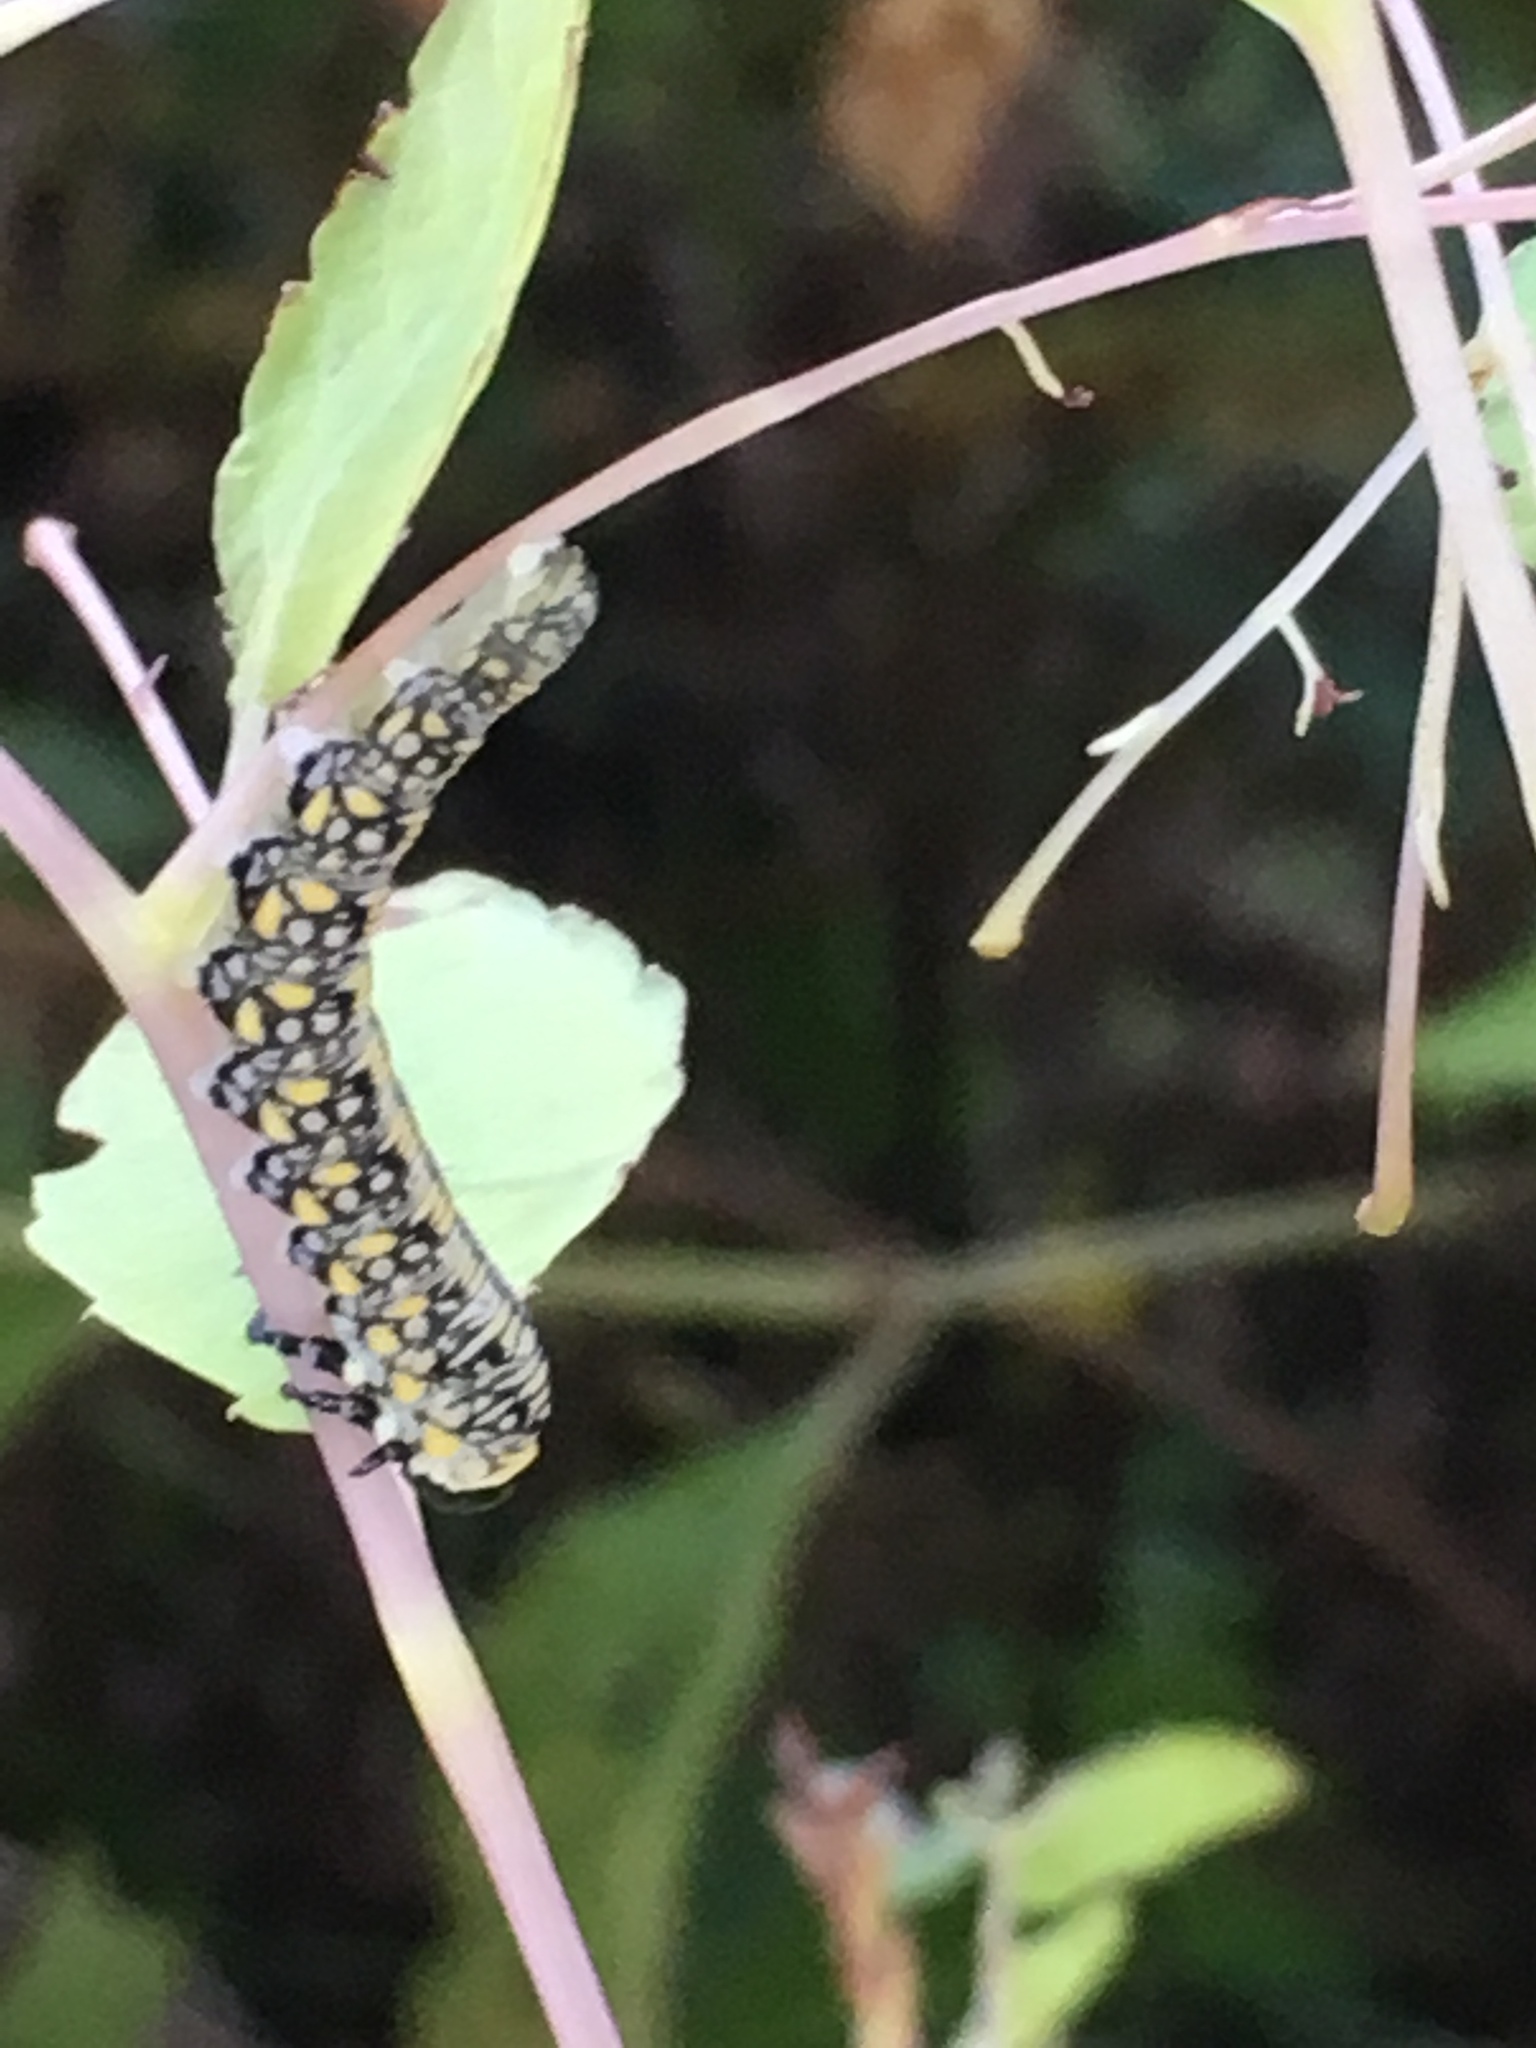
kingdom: Animalia
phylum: Arthropoda
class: Insecta
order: Hymenoptera
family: Diprionidae
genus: Diprion
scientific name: Diprion similis
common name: Pine sawfly
